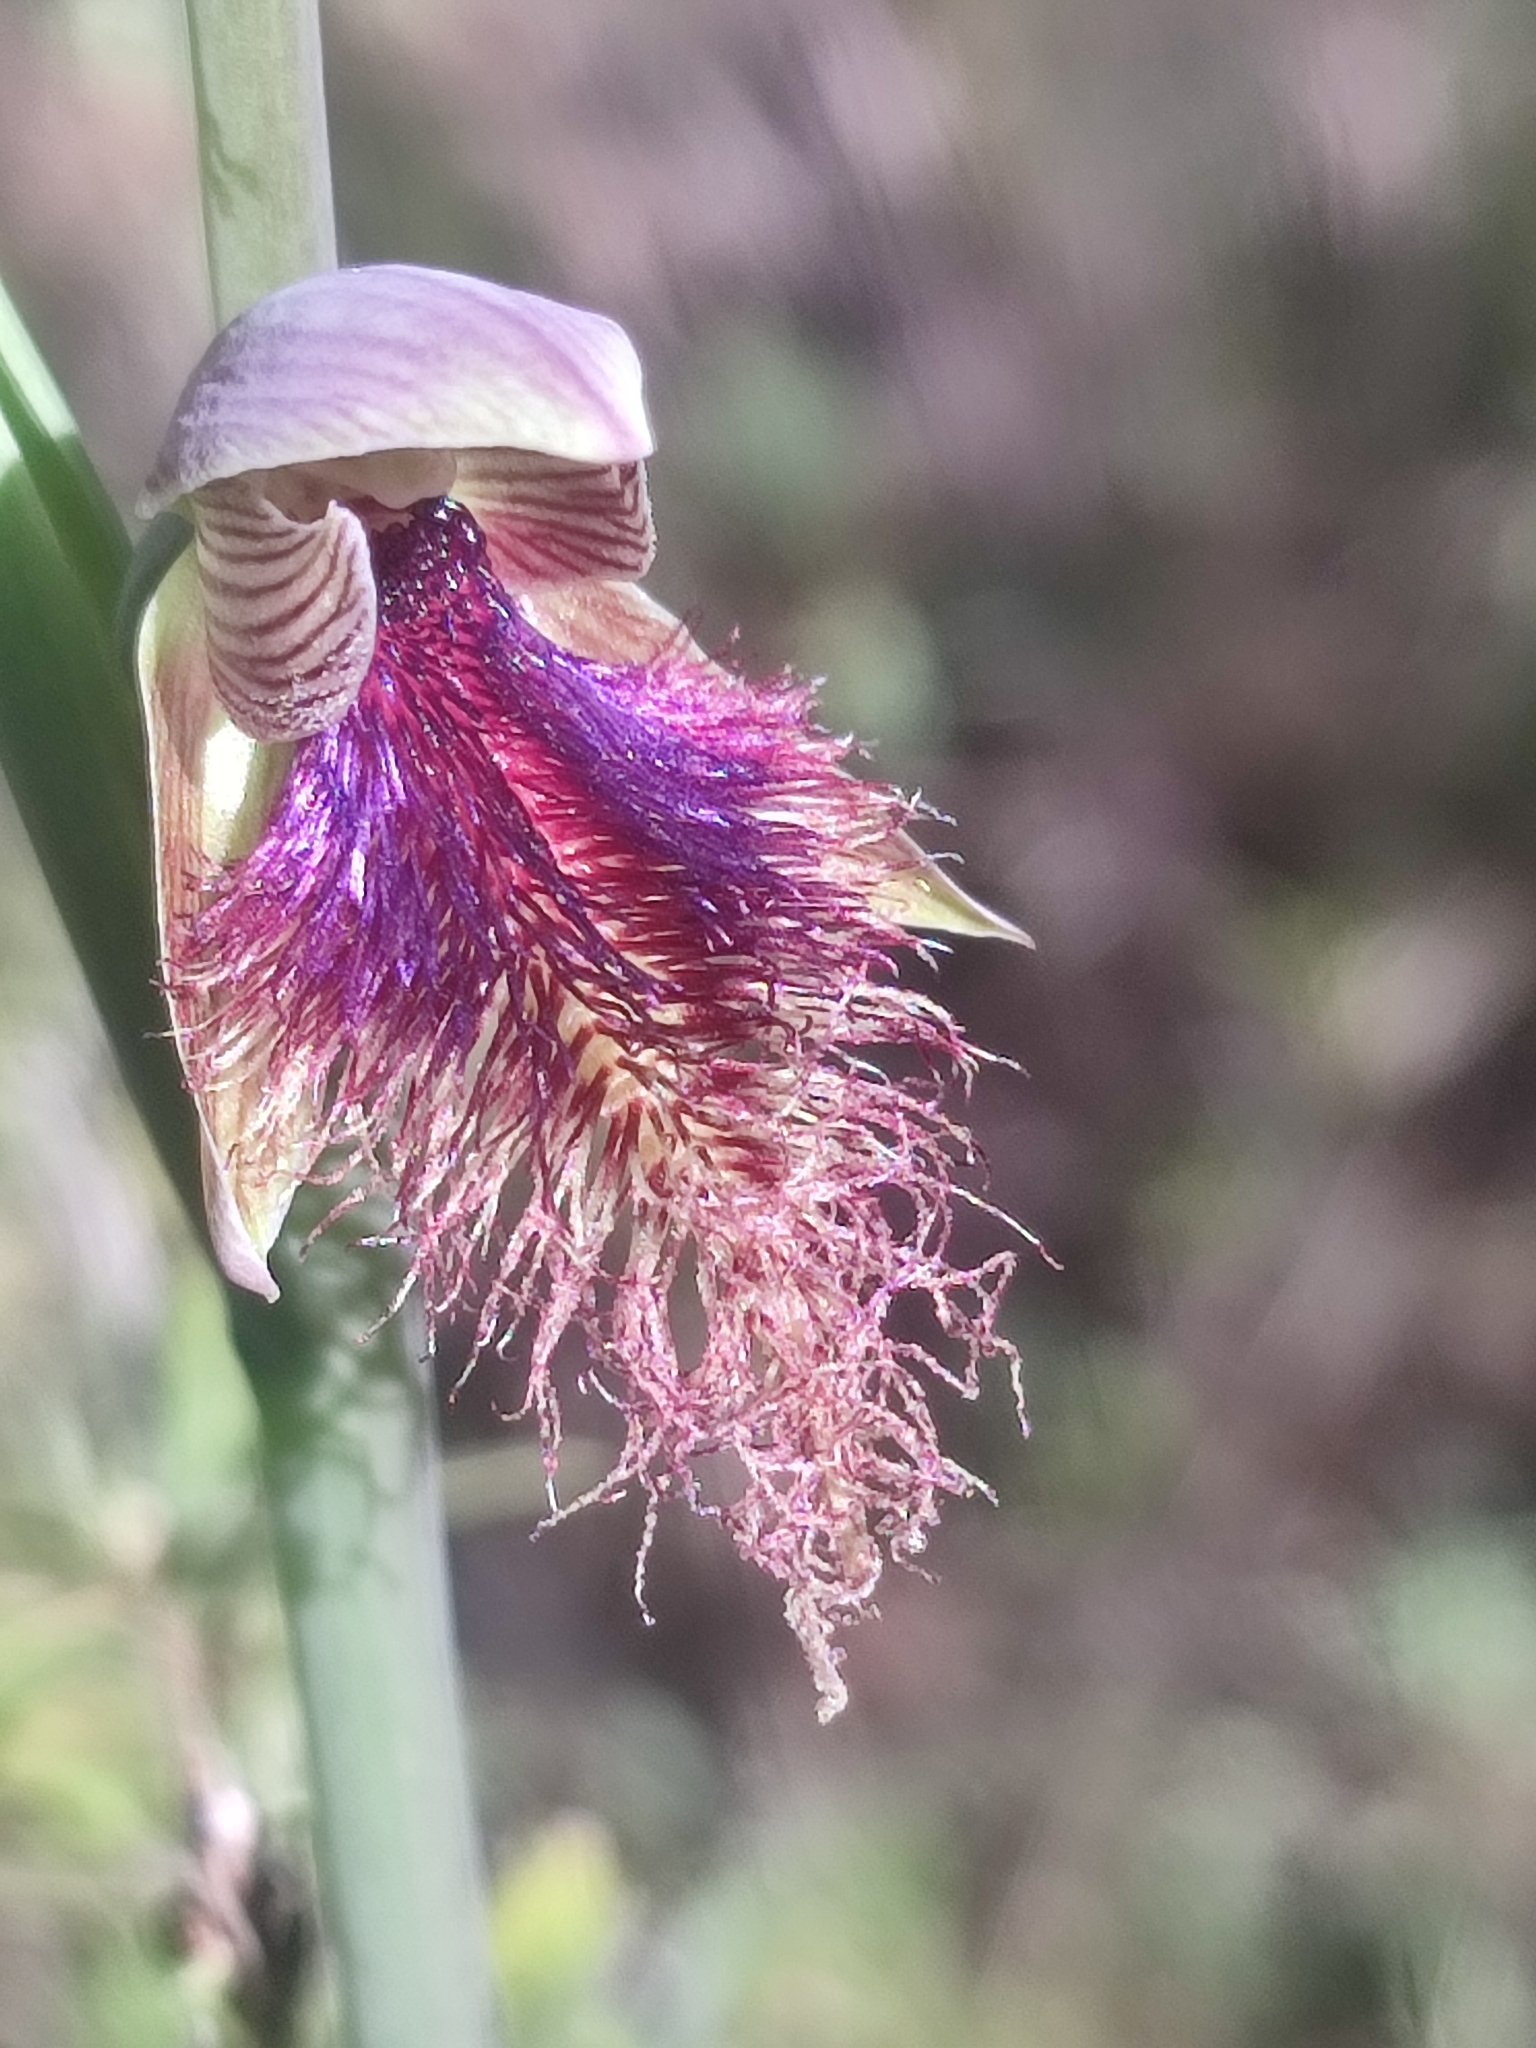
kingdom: Plantae
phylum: Tracheophyta
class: Liliopsida
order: Asparagales
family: Orchidaceae
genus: Calochilus
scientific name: Calochilus robertsonii
